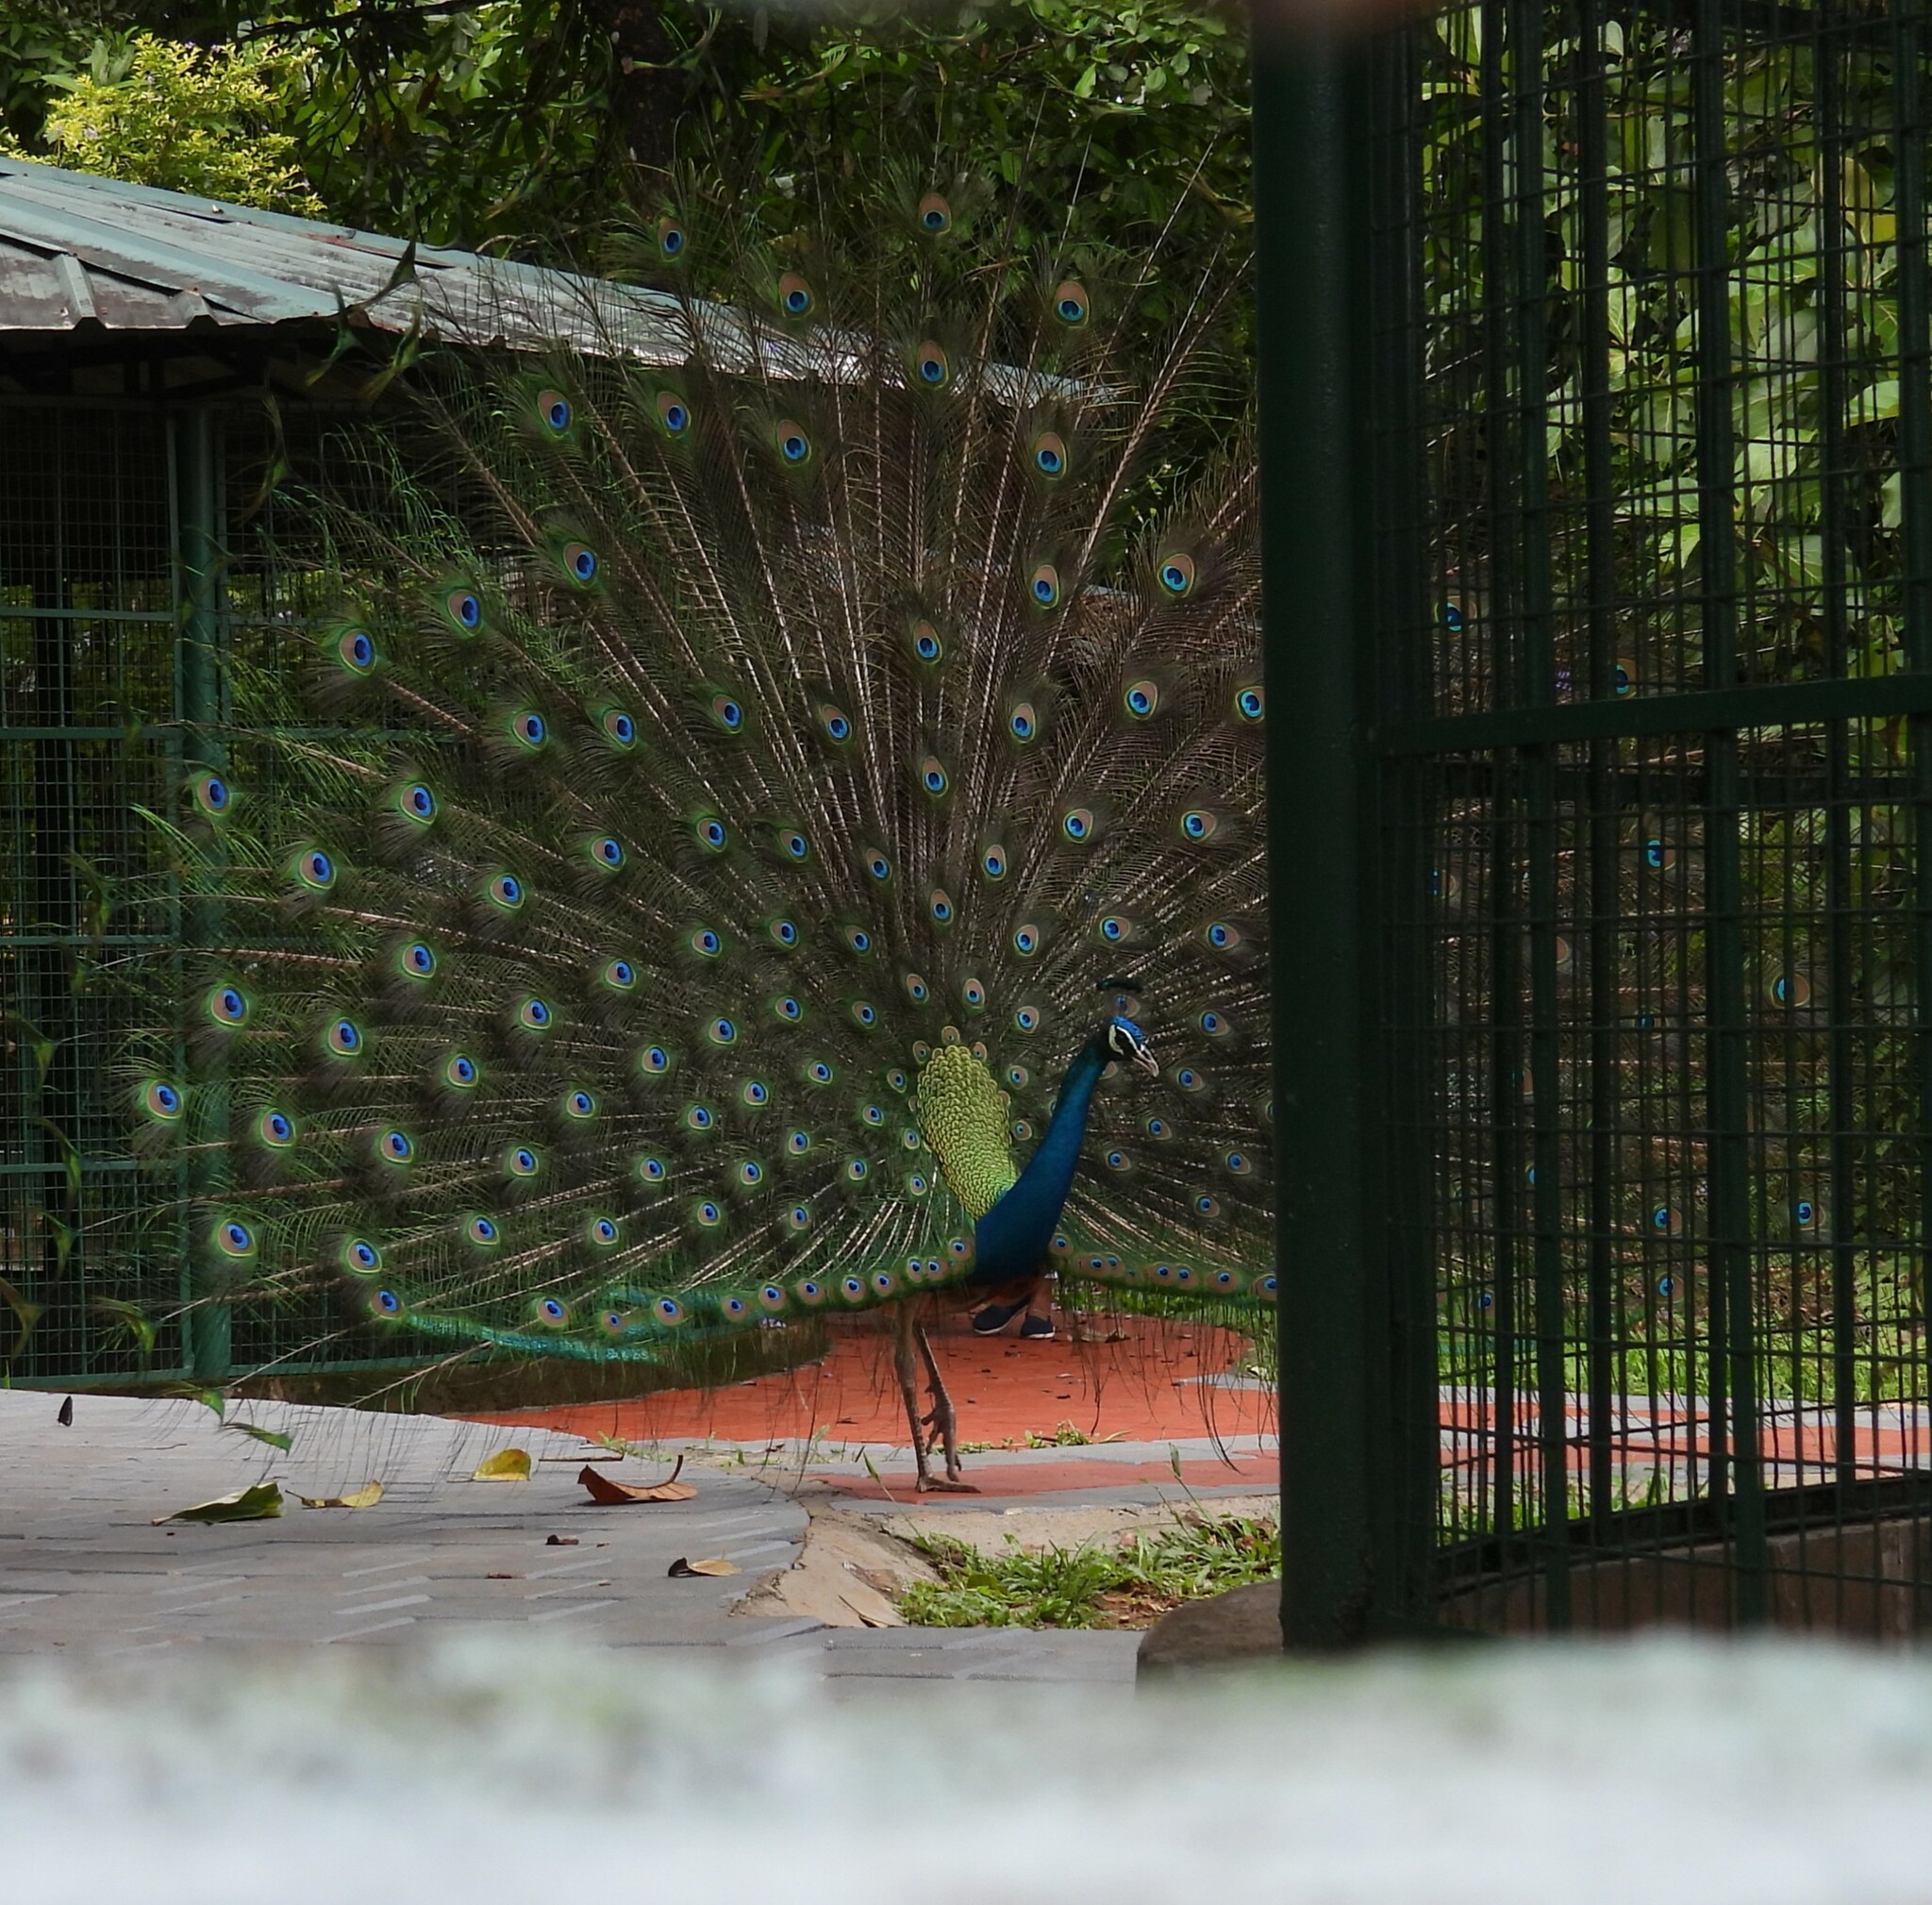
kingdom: Animalia
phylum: Chordata
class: Aves
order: Galliformes
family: Phasianidae
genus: Pavo
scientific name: Pavo cristatus
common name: Indian peafowl
